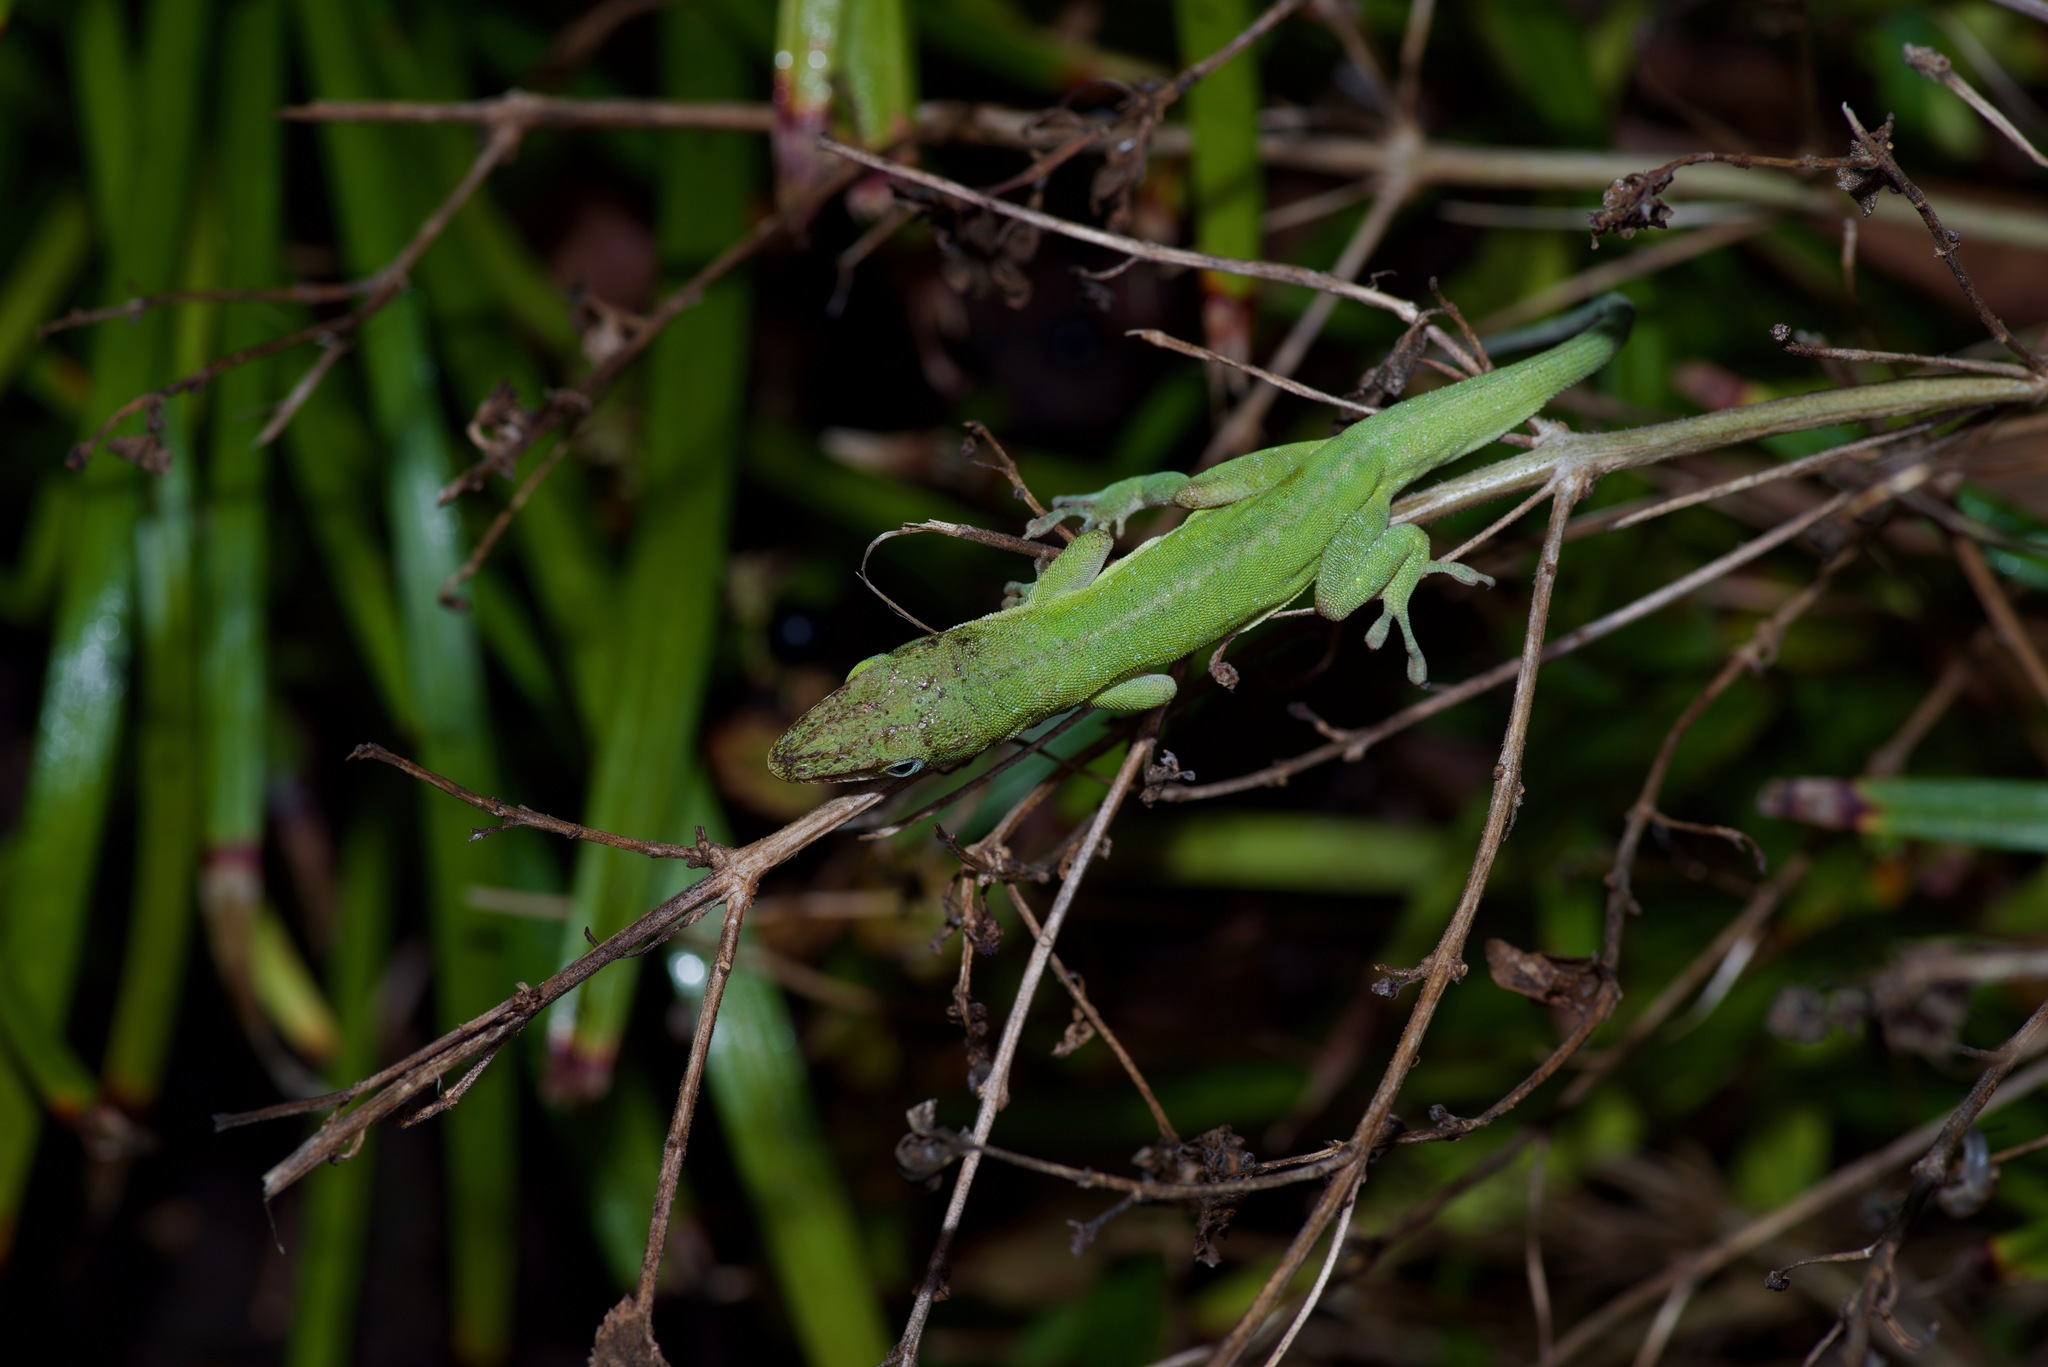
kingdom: Animalia
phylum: Chordata
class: Squamata
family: Dactyloidae
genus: Anolis
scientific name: Anolis carolinensis
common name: Green anole
